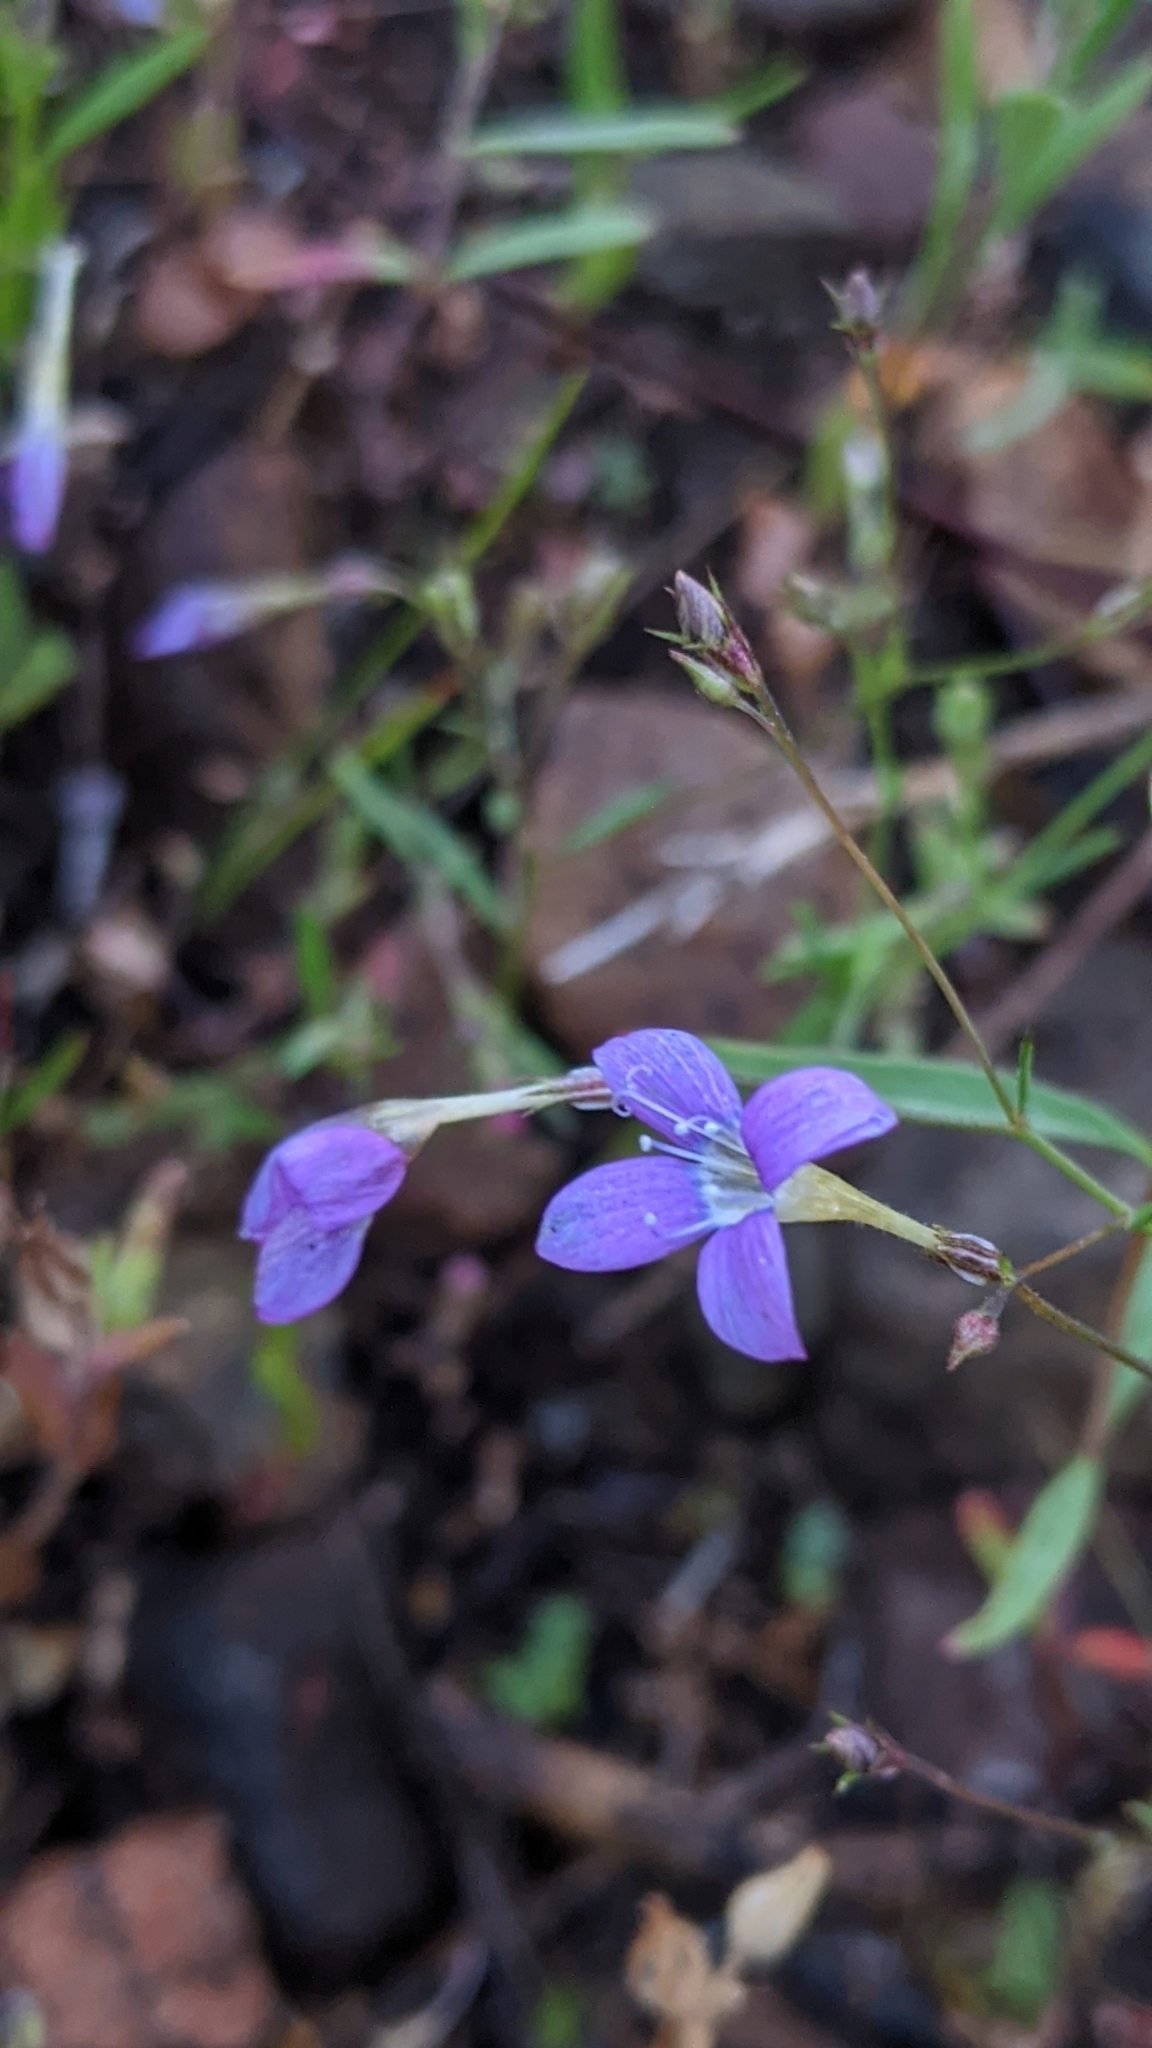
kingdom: Plantae
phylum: Tracheophyta
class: Magnoliopsida
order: Ericales
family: Polemoniaceae
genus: Navarretia
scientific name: Navarretia leptalea
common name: Bridges' pincushionplant
